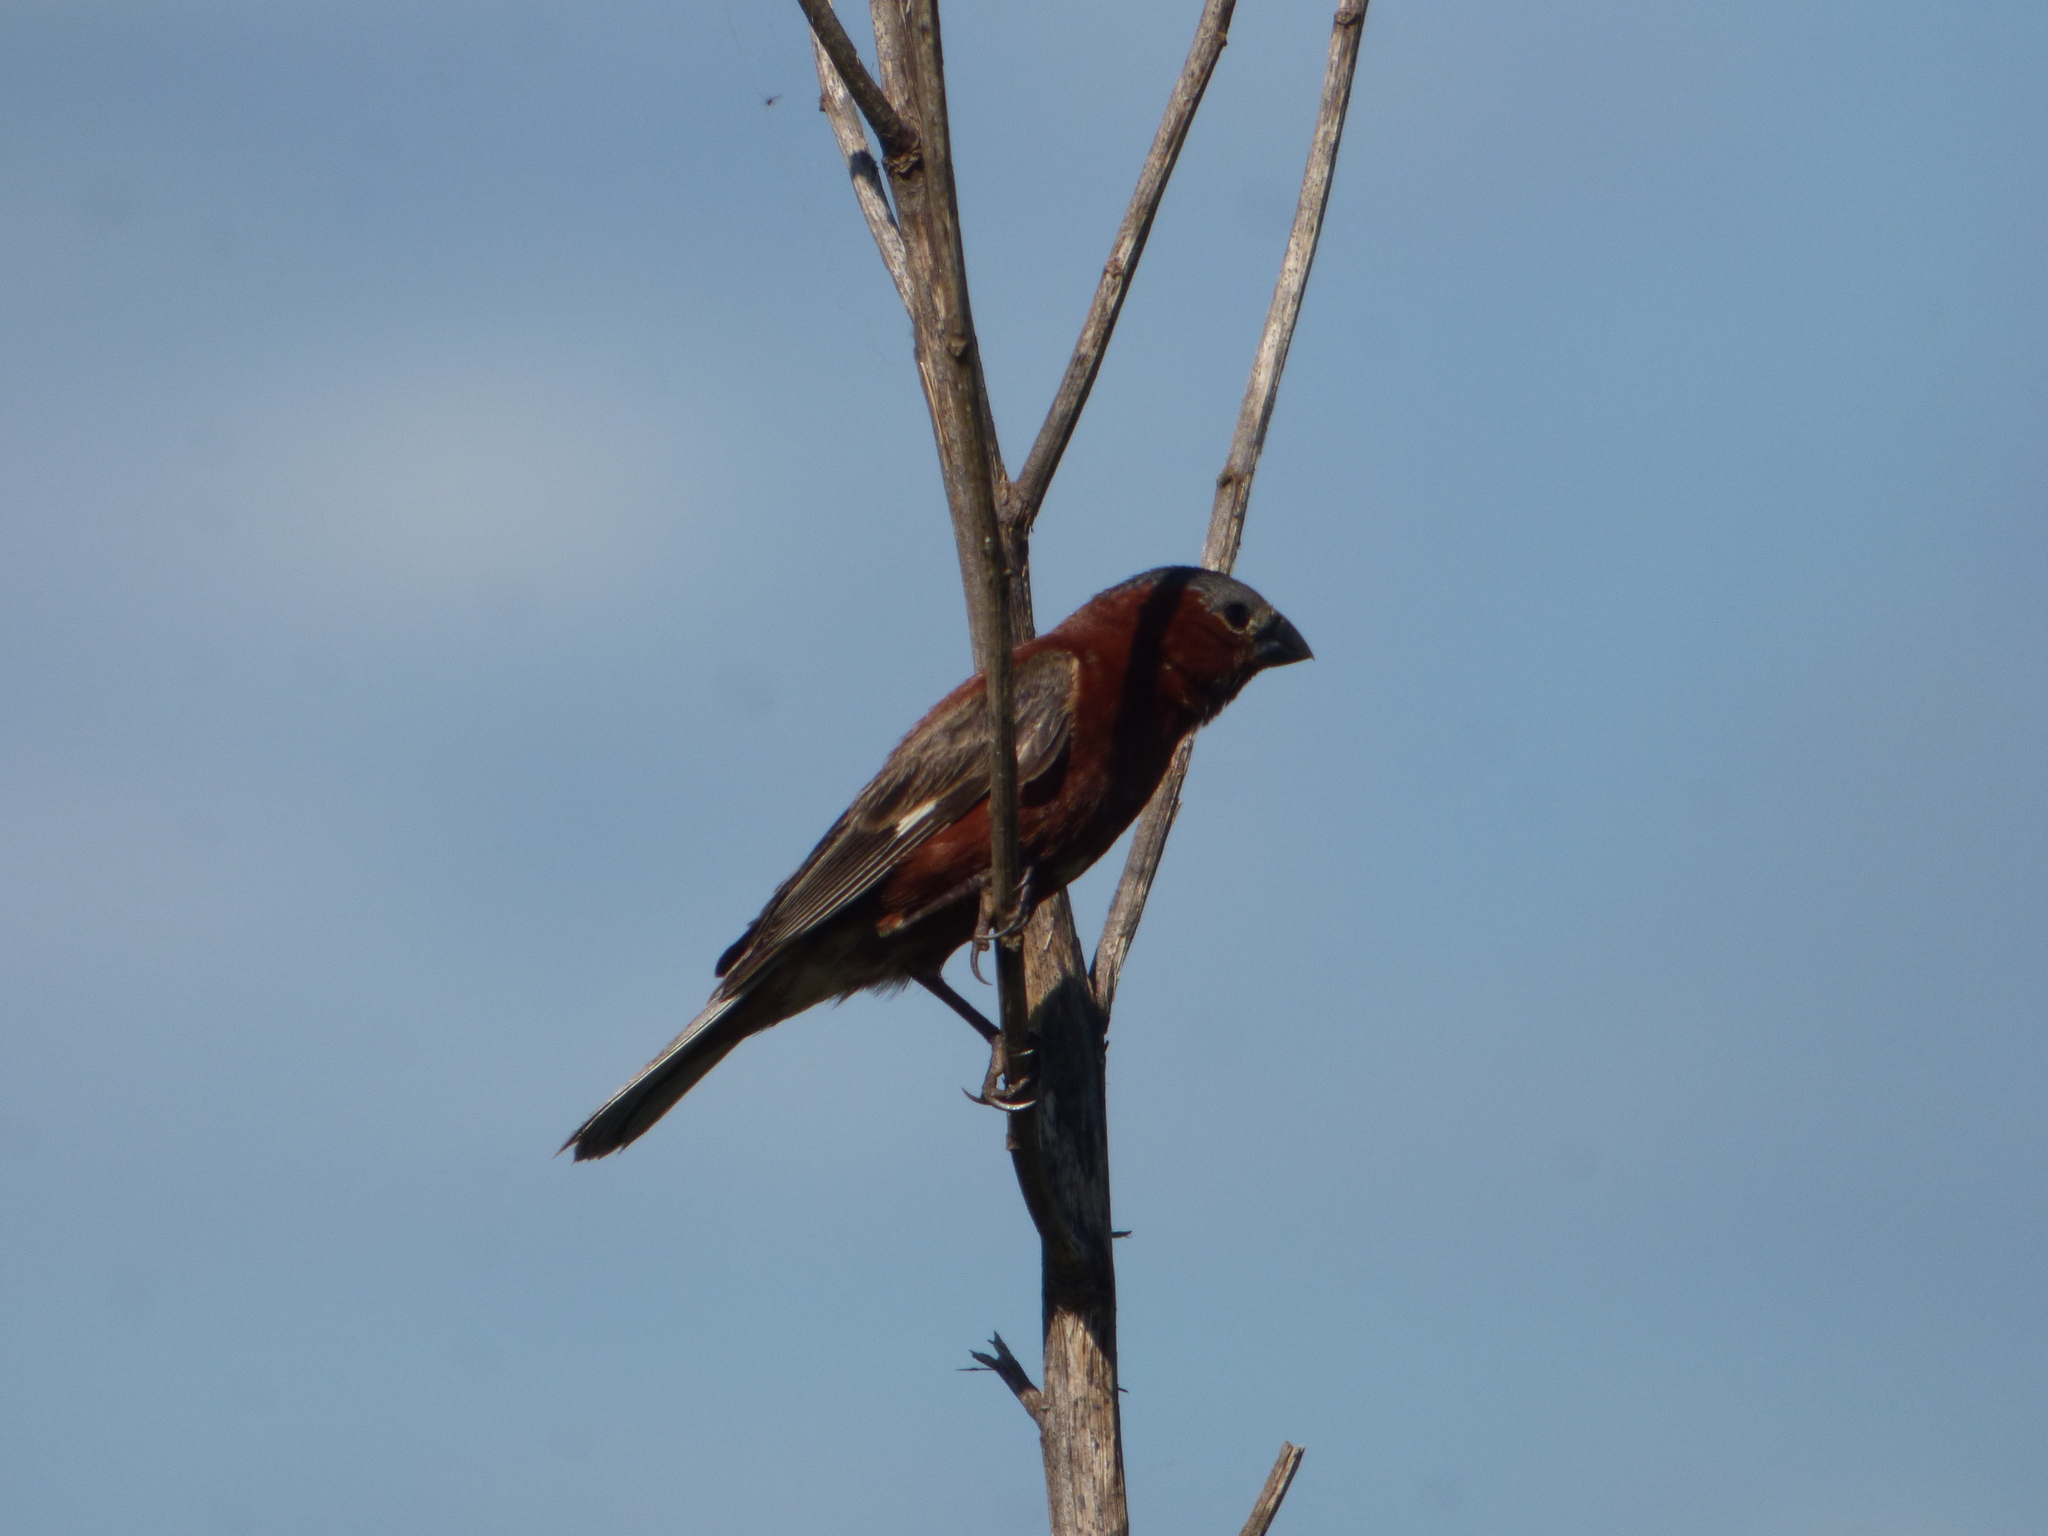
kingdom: Animalia
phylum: Chordata
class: Aves
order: Passeriformes
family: Thraupidae
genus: Sporophila
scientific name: Sporophila cinnamomea
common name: Chestnut seedeater
